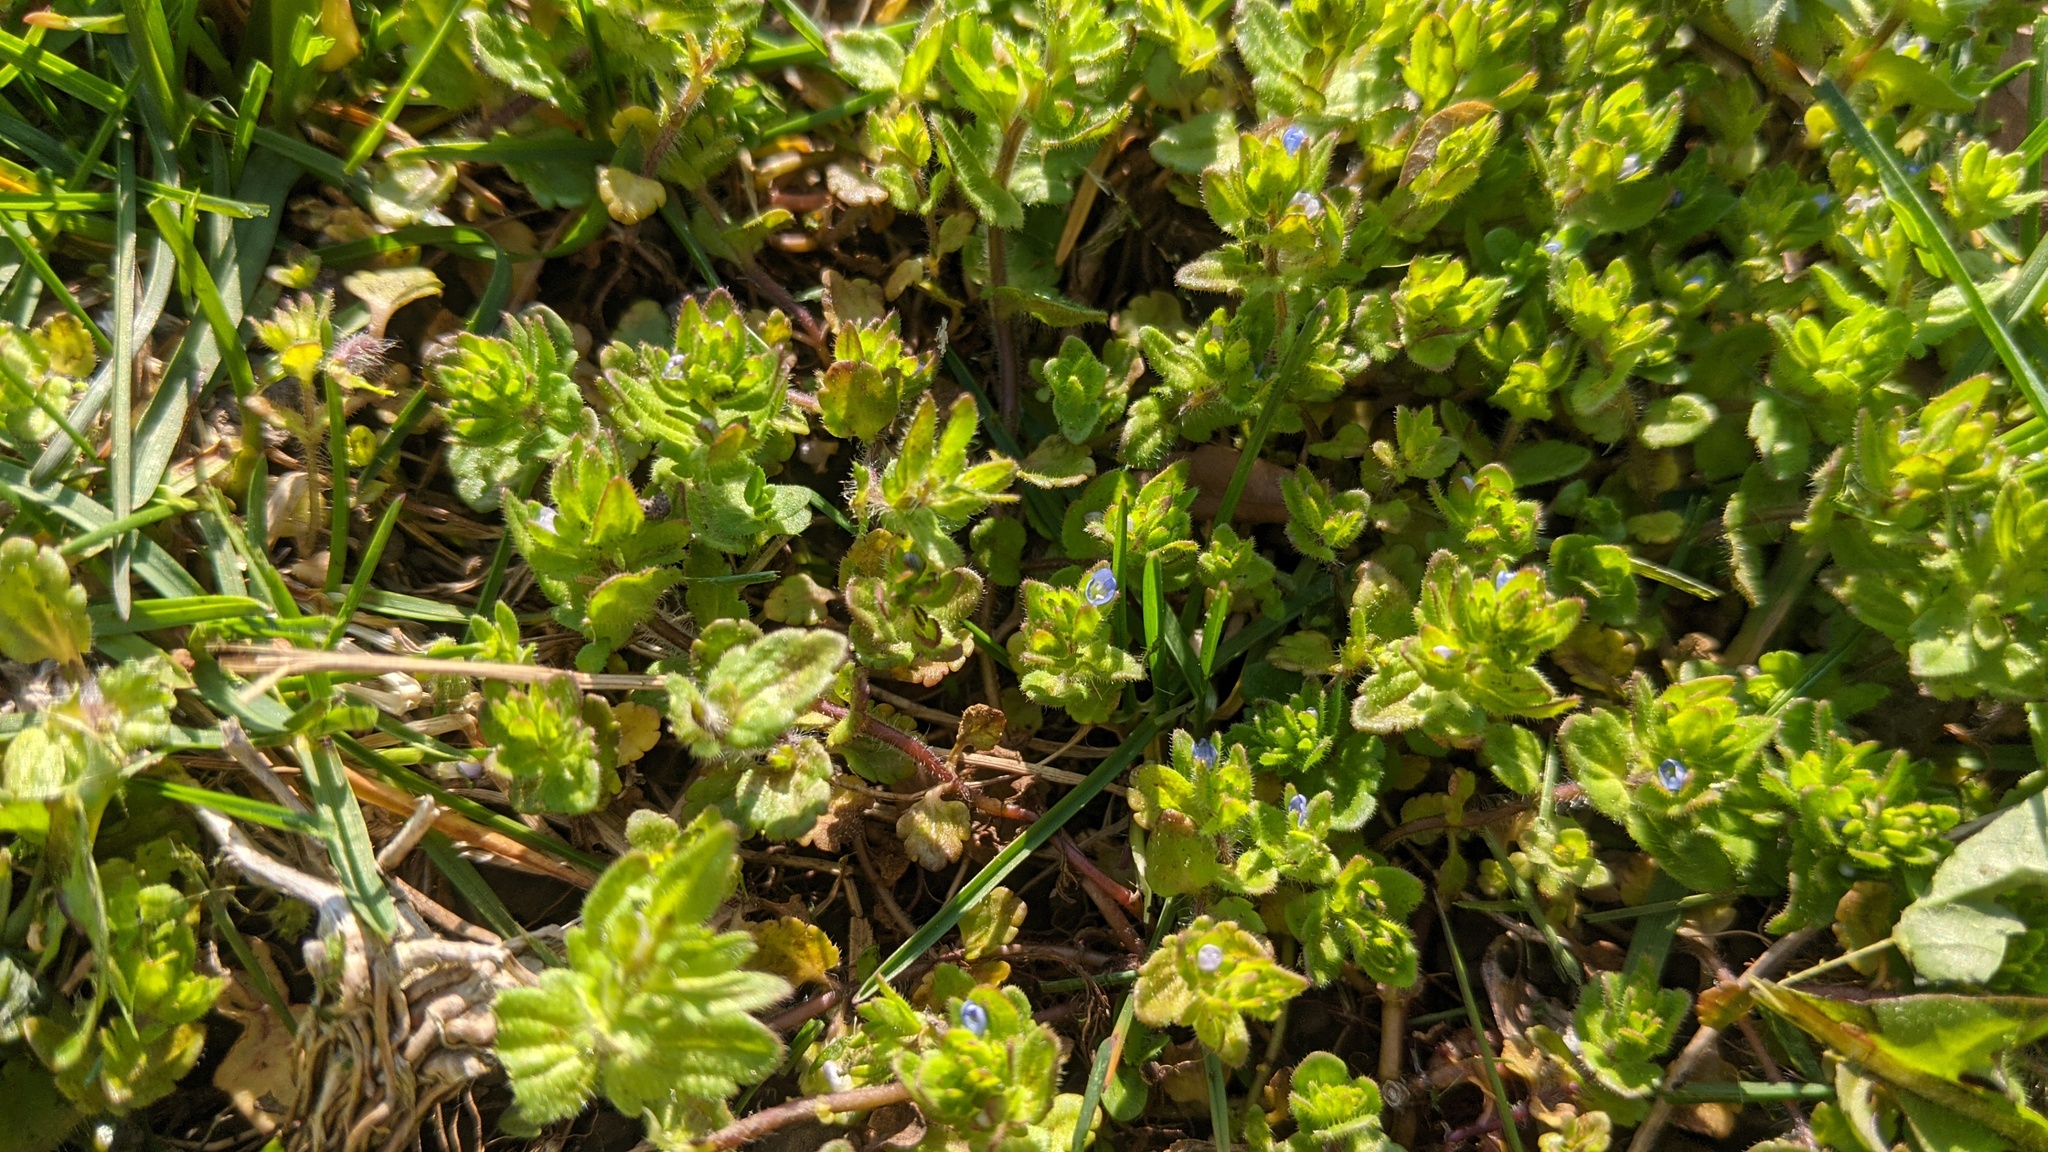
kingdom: Plantae
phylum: Tracheophyta
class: Magnoliopsida
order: Lamiales
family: Plantaginaceae
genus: Veronica
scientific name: Veronica arvensis
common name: Corn speedwell
